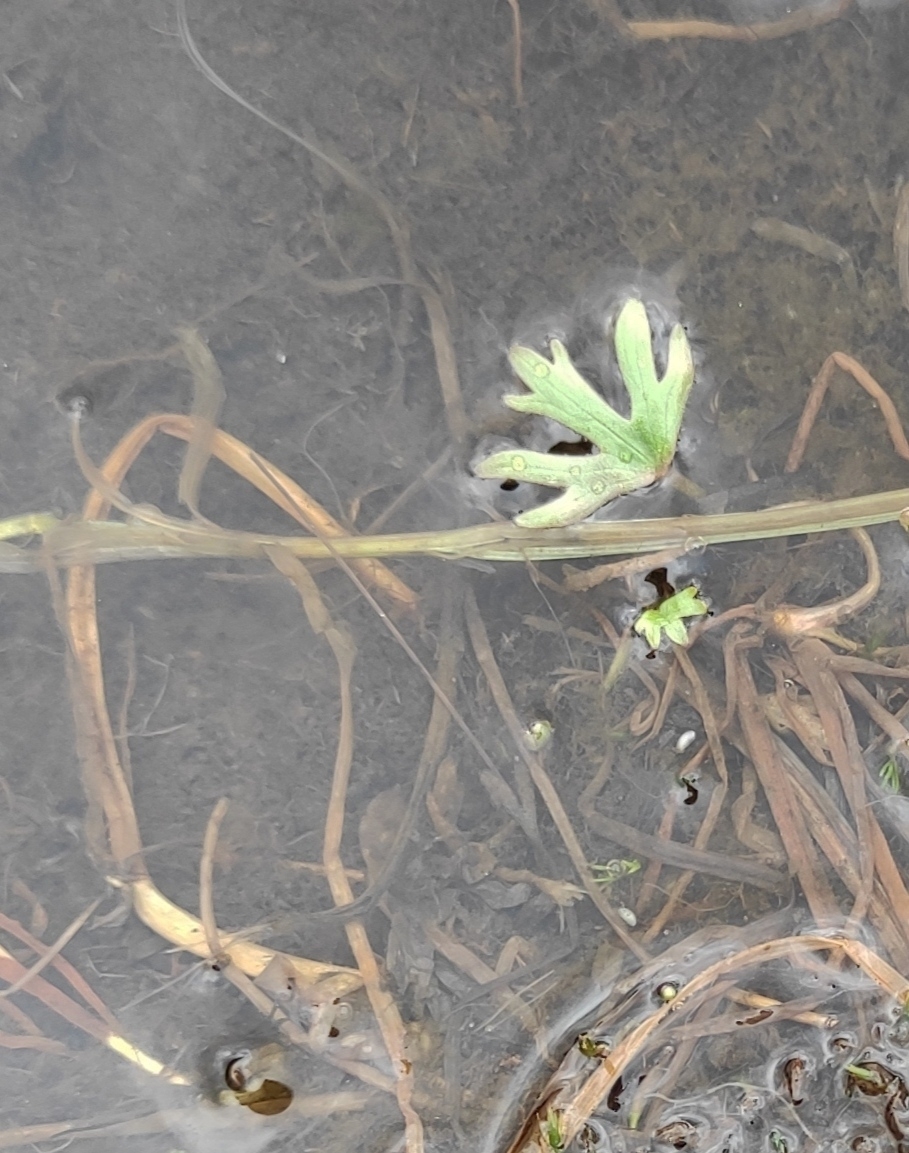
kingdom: Plantae
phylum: Tracheophyta
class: Magnoliopsida
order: Ranunculales
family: Ranunculaceae
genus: Ranunculus
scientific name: Ranunculus gmelinii
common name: Gmelin's buttercup
